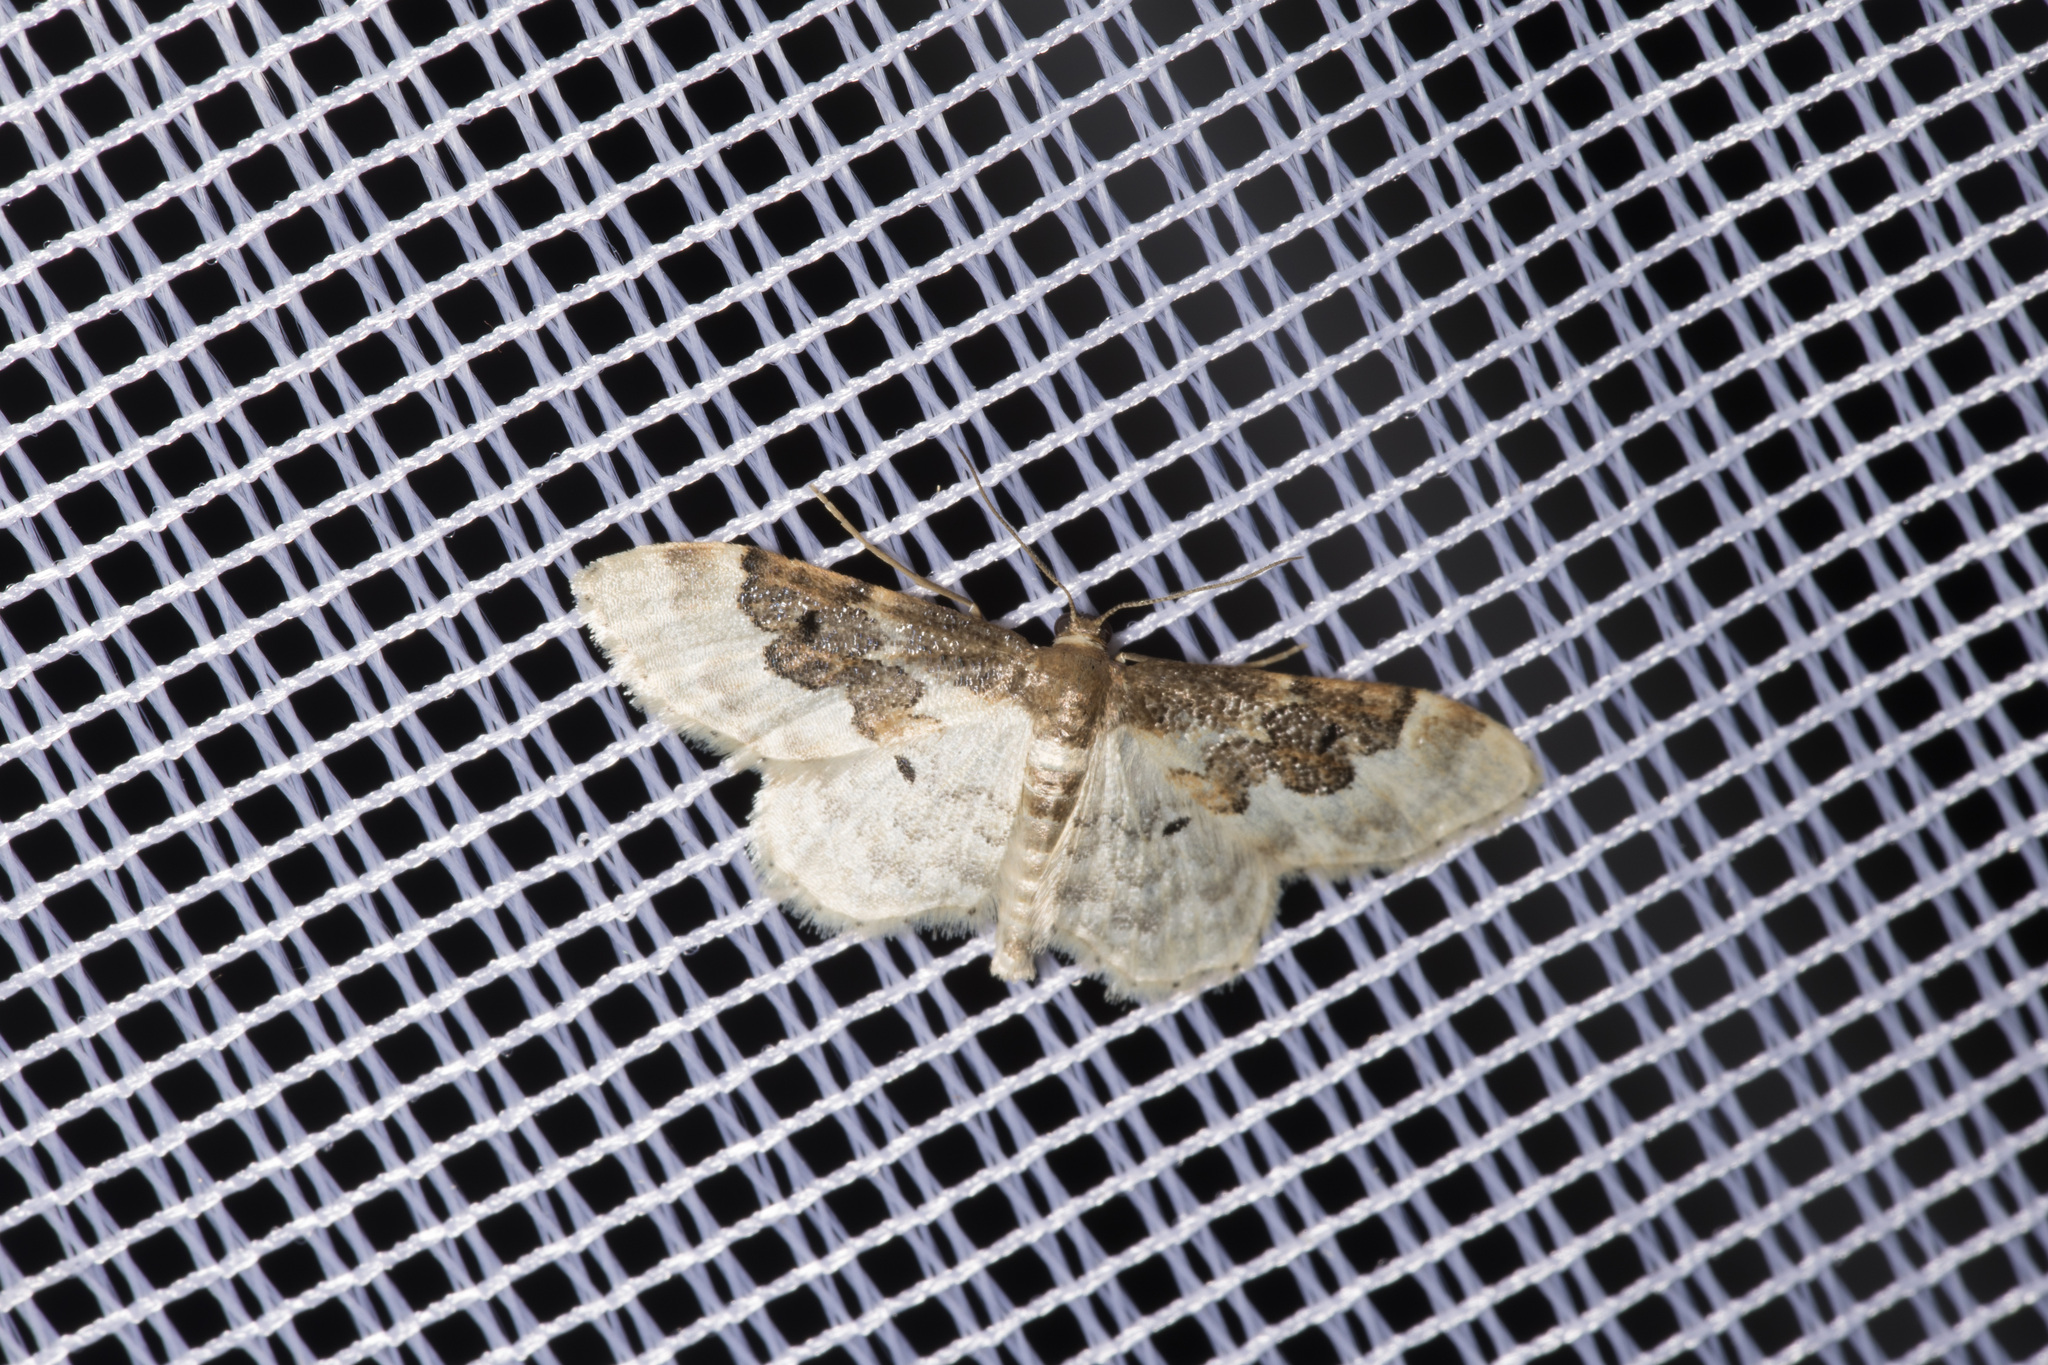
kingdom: Animalia
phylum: Arthropoda
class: Insecta
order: Lepidoptera
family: Geometridae
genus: Idaea
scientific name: Idaea rusticata
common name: Least carpet
